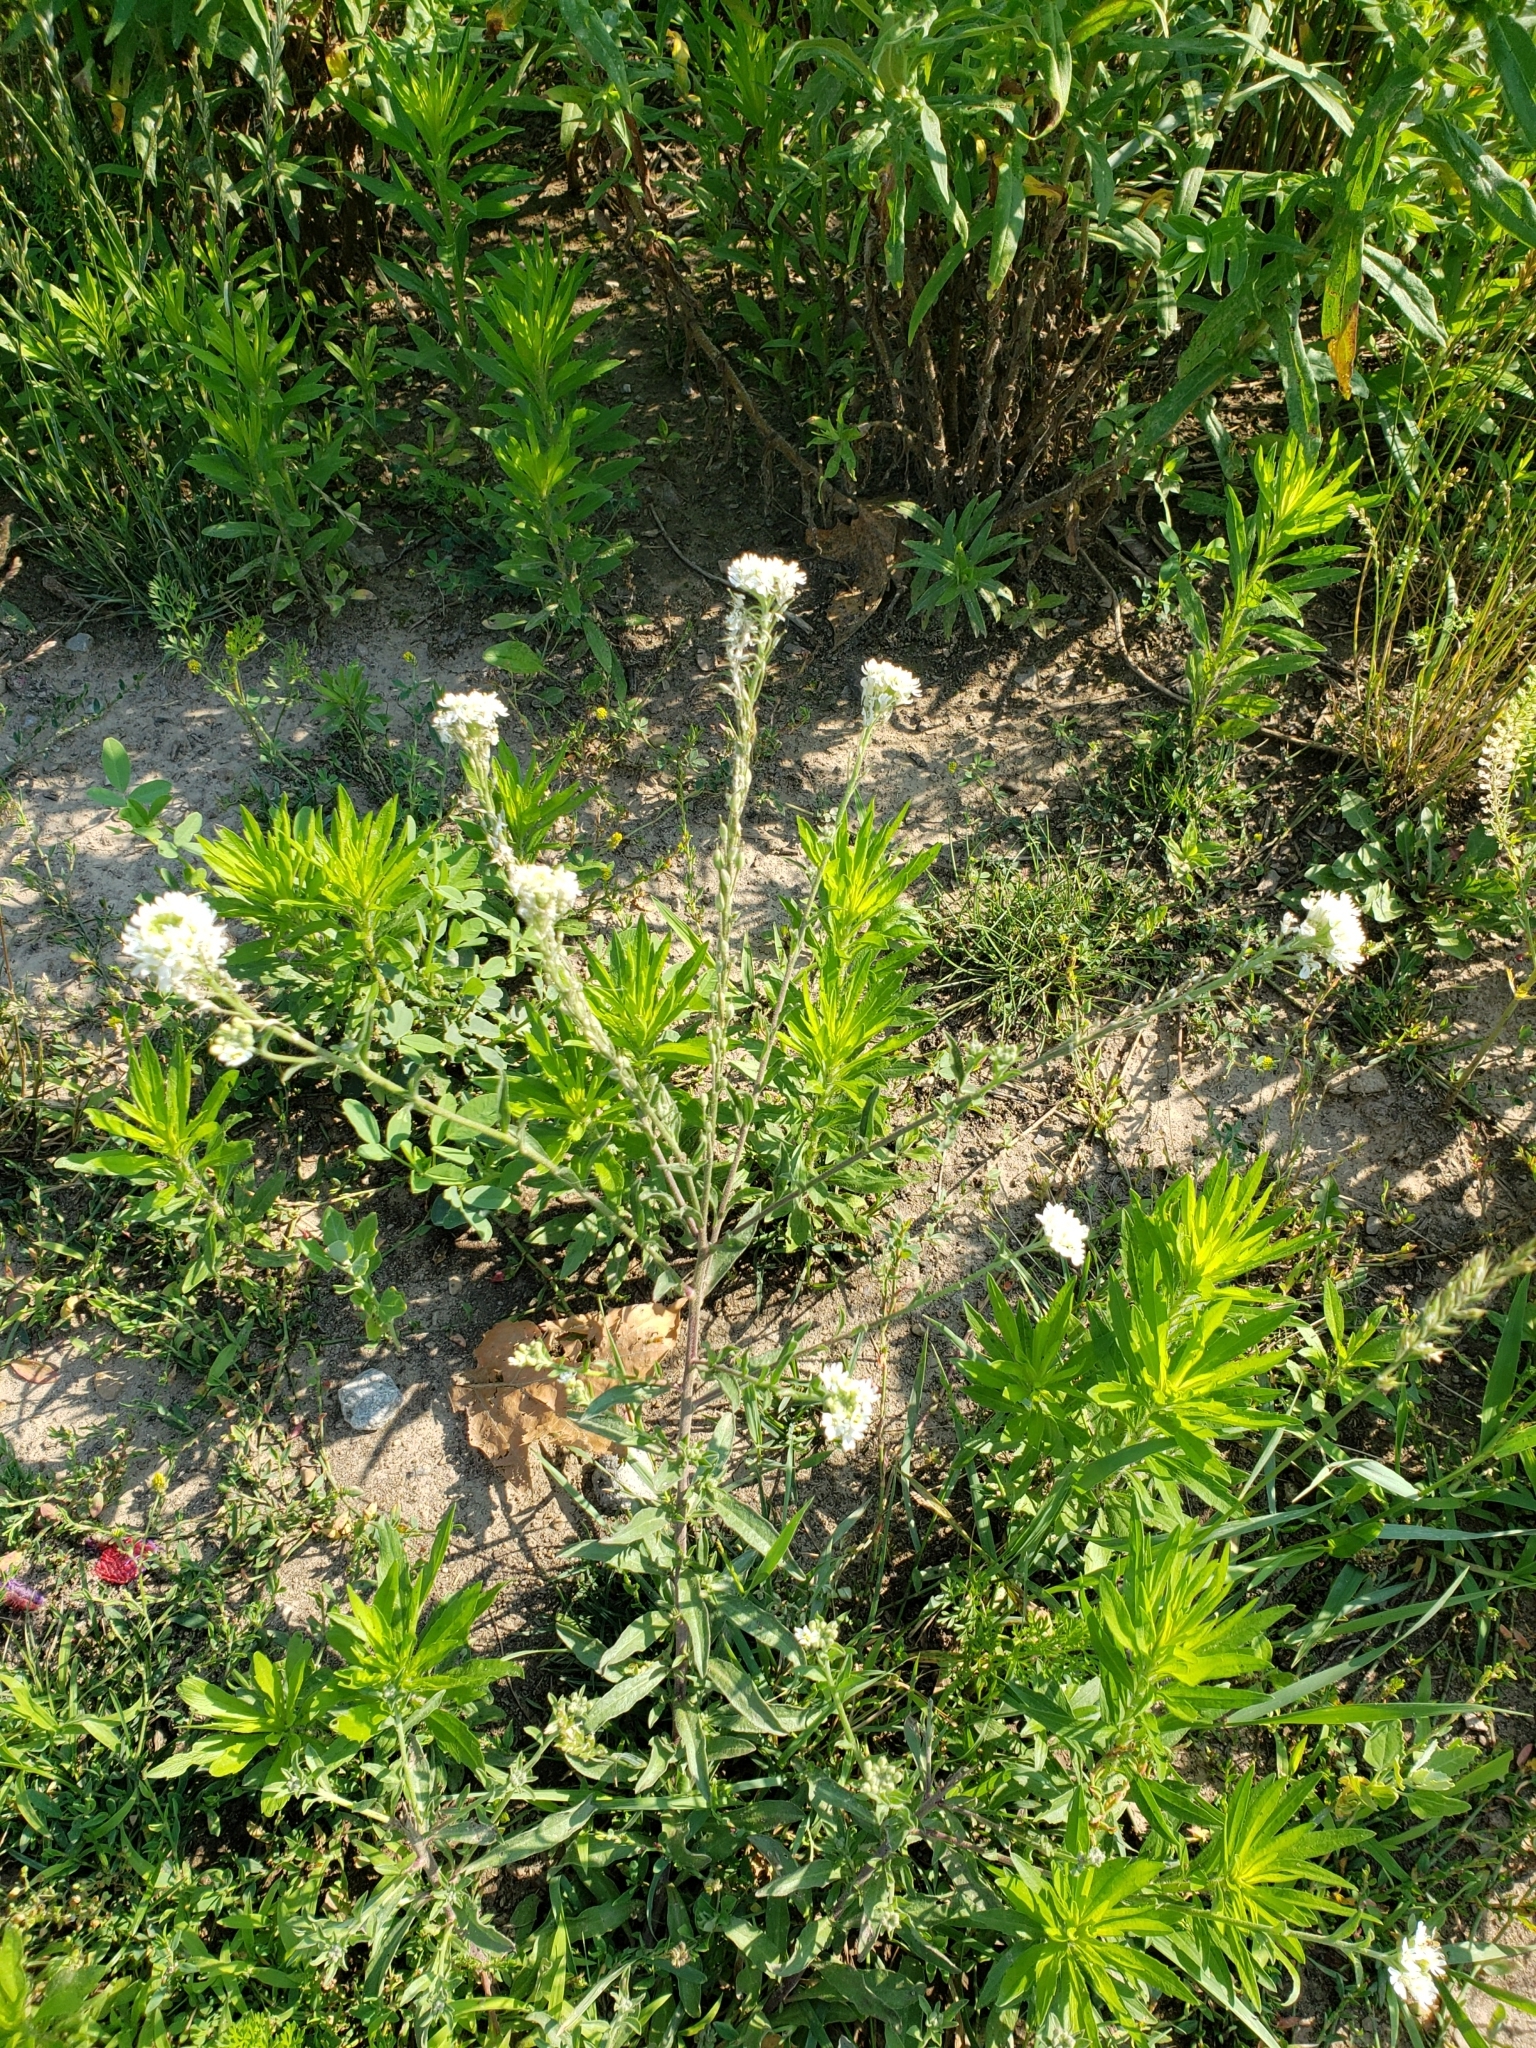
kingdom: Plantae
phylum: Tracheophyta
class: Magnoliopsida
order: Brassicales
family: Brassicaceae
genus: Berteroa
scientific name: Berteroa incana
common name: Hoary alison
